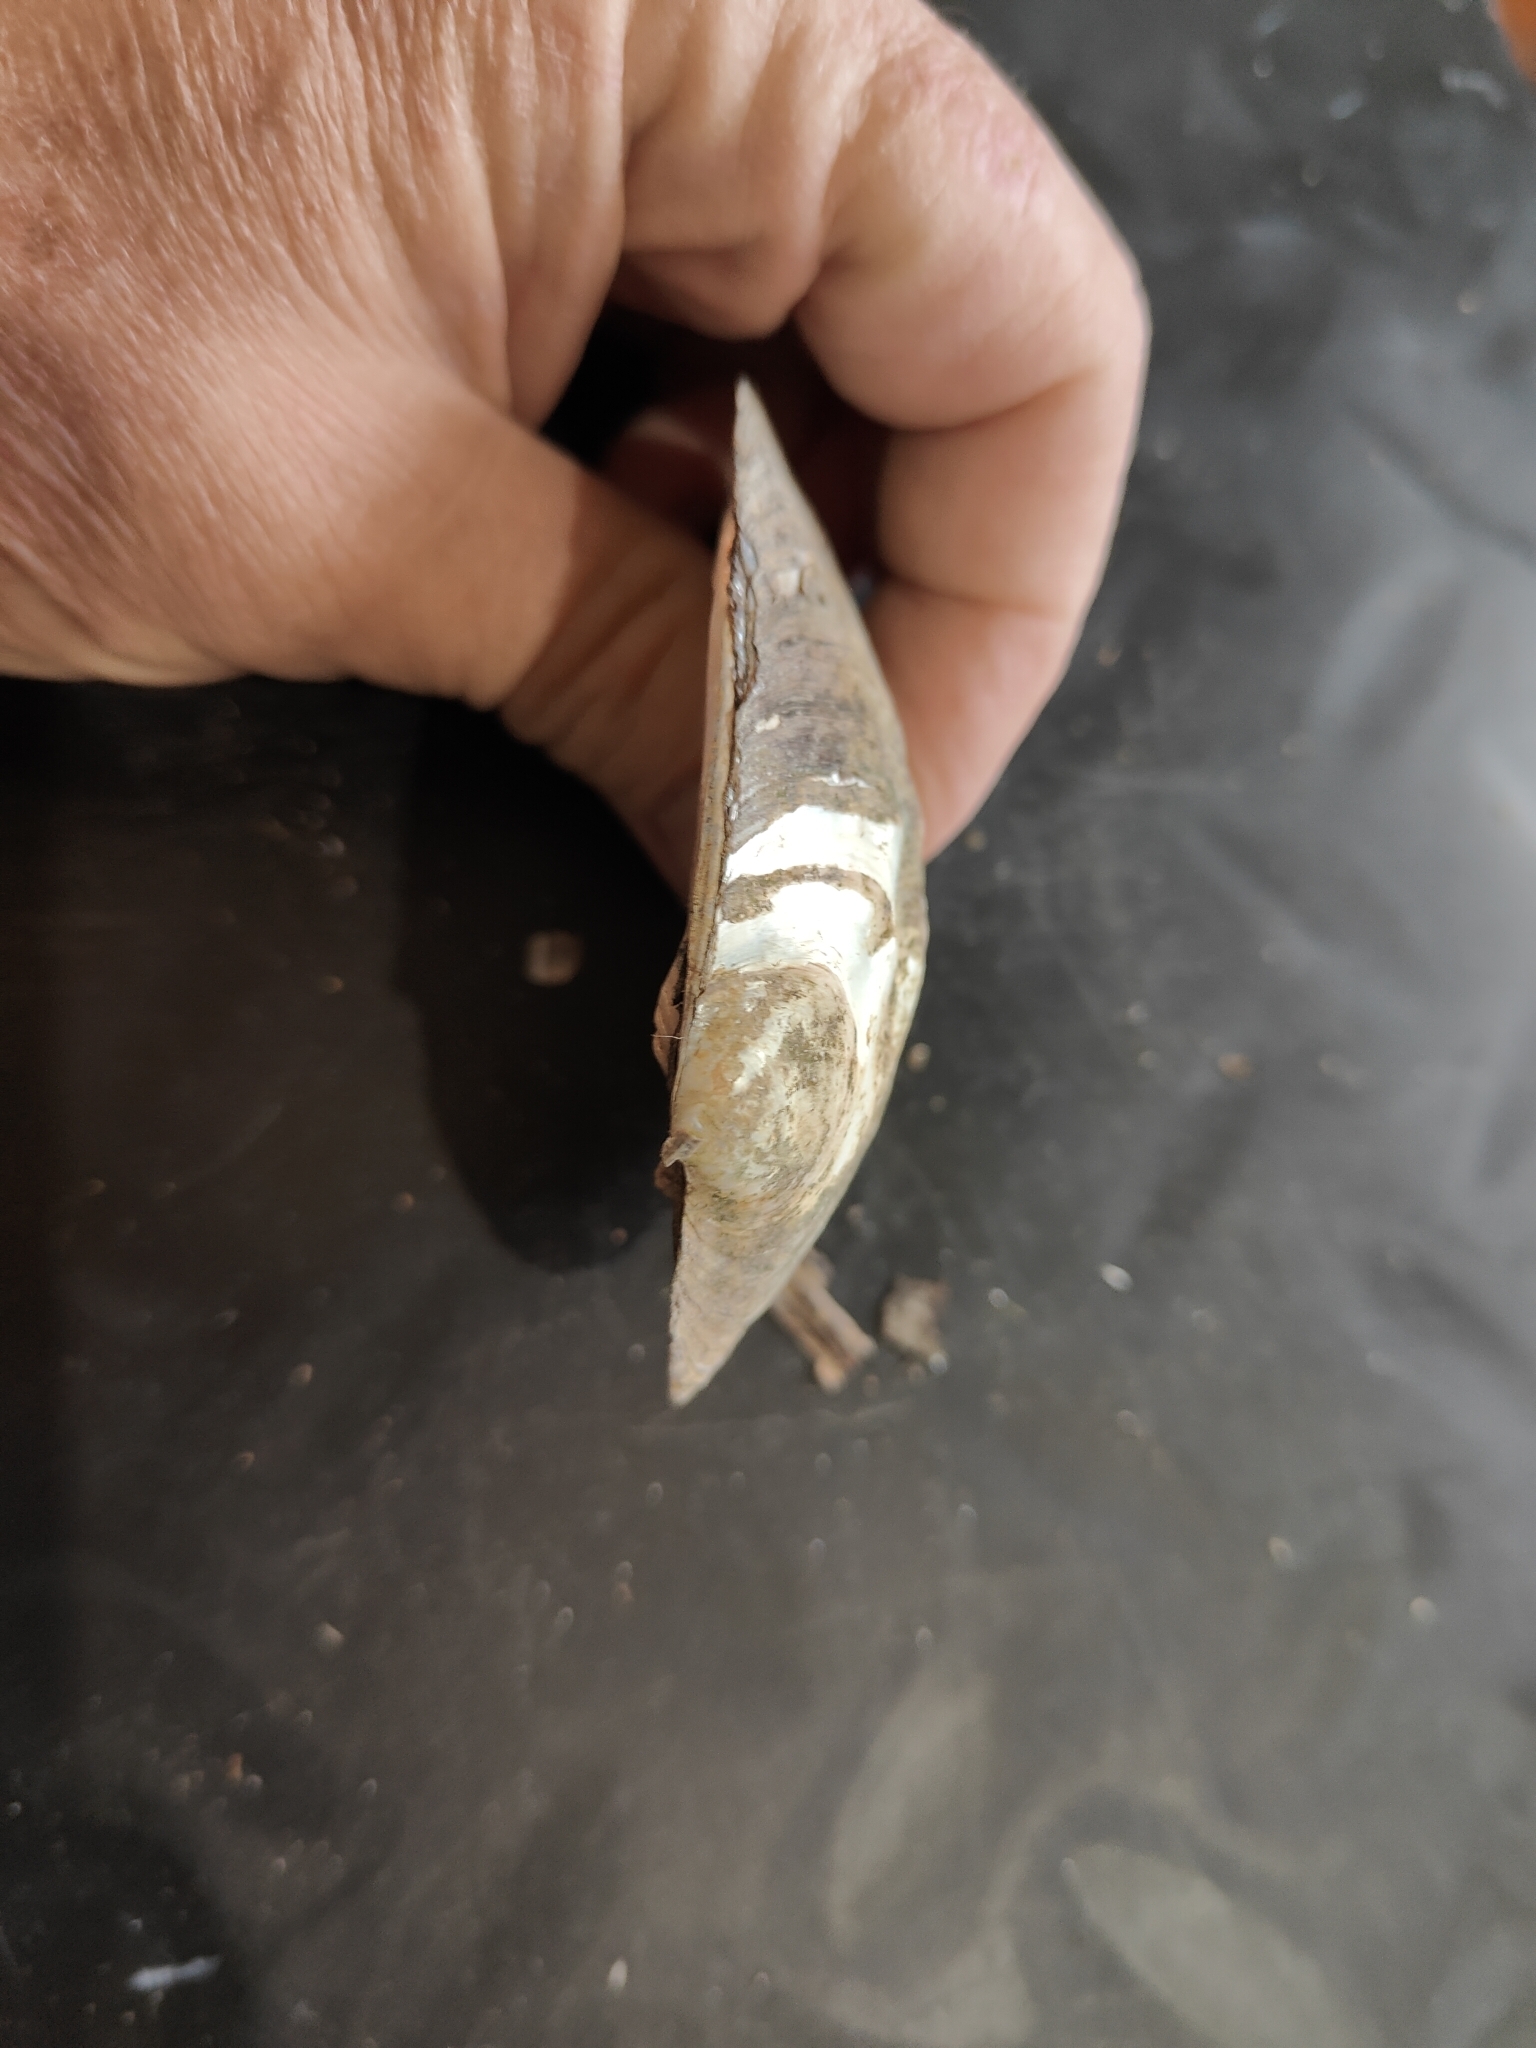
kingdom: Animalia
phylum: Mollusca
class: Bivalvia
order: Unionida
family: Unionidae
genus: Amblema
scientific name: Amblema plicata
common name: Threeridge
